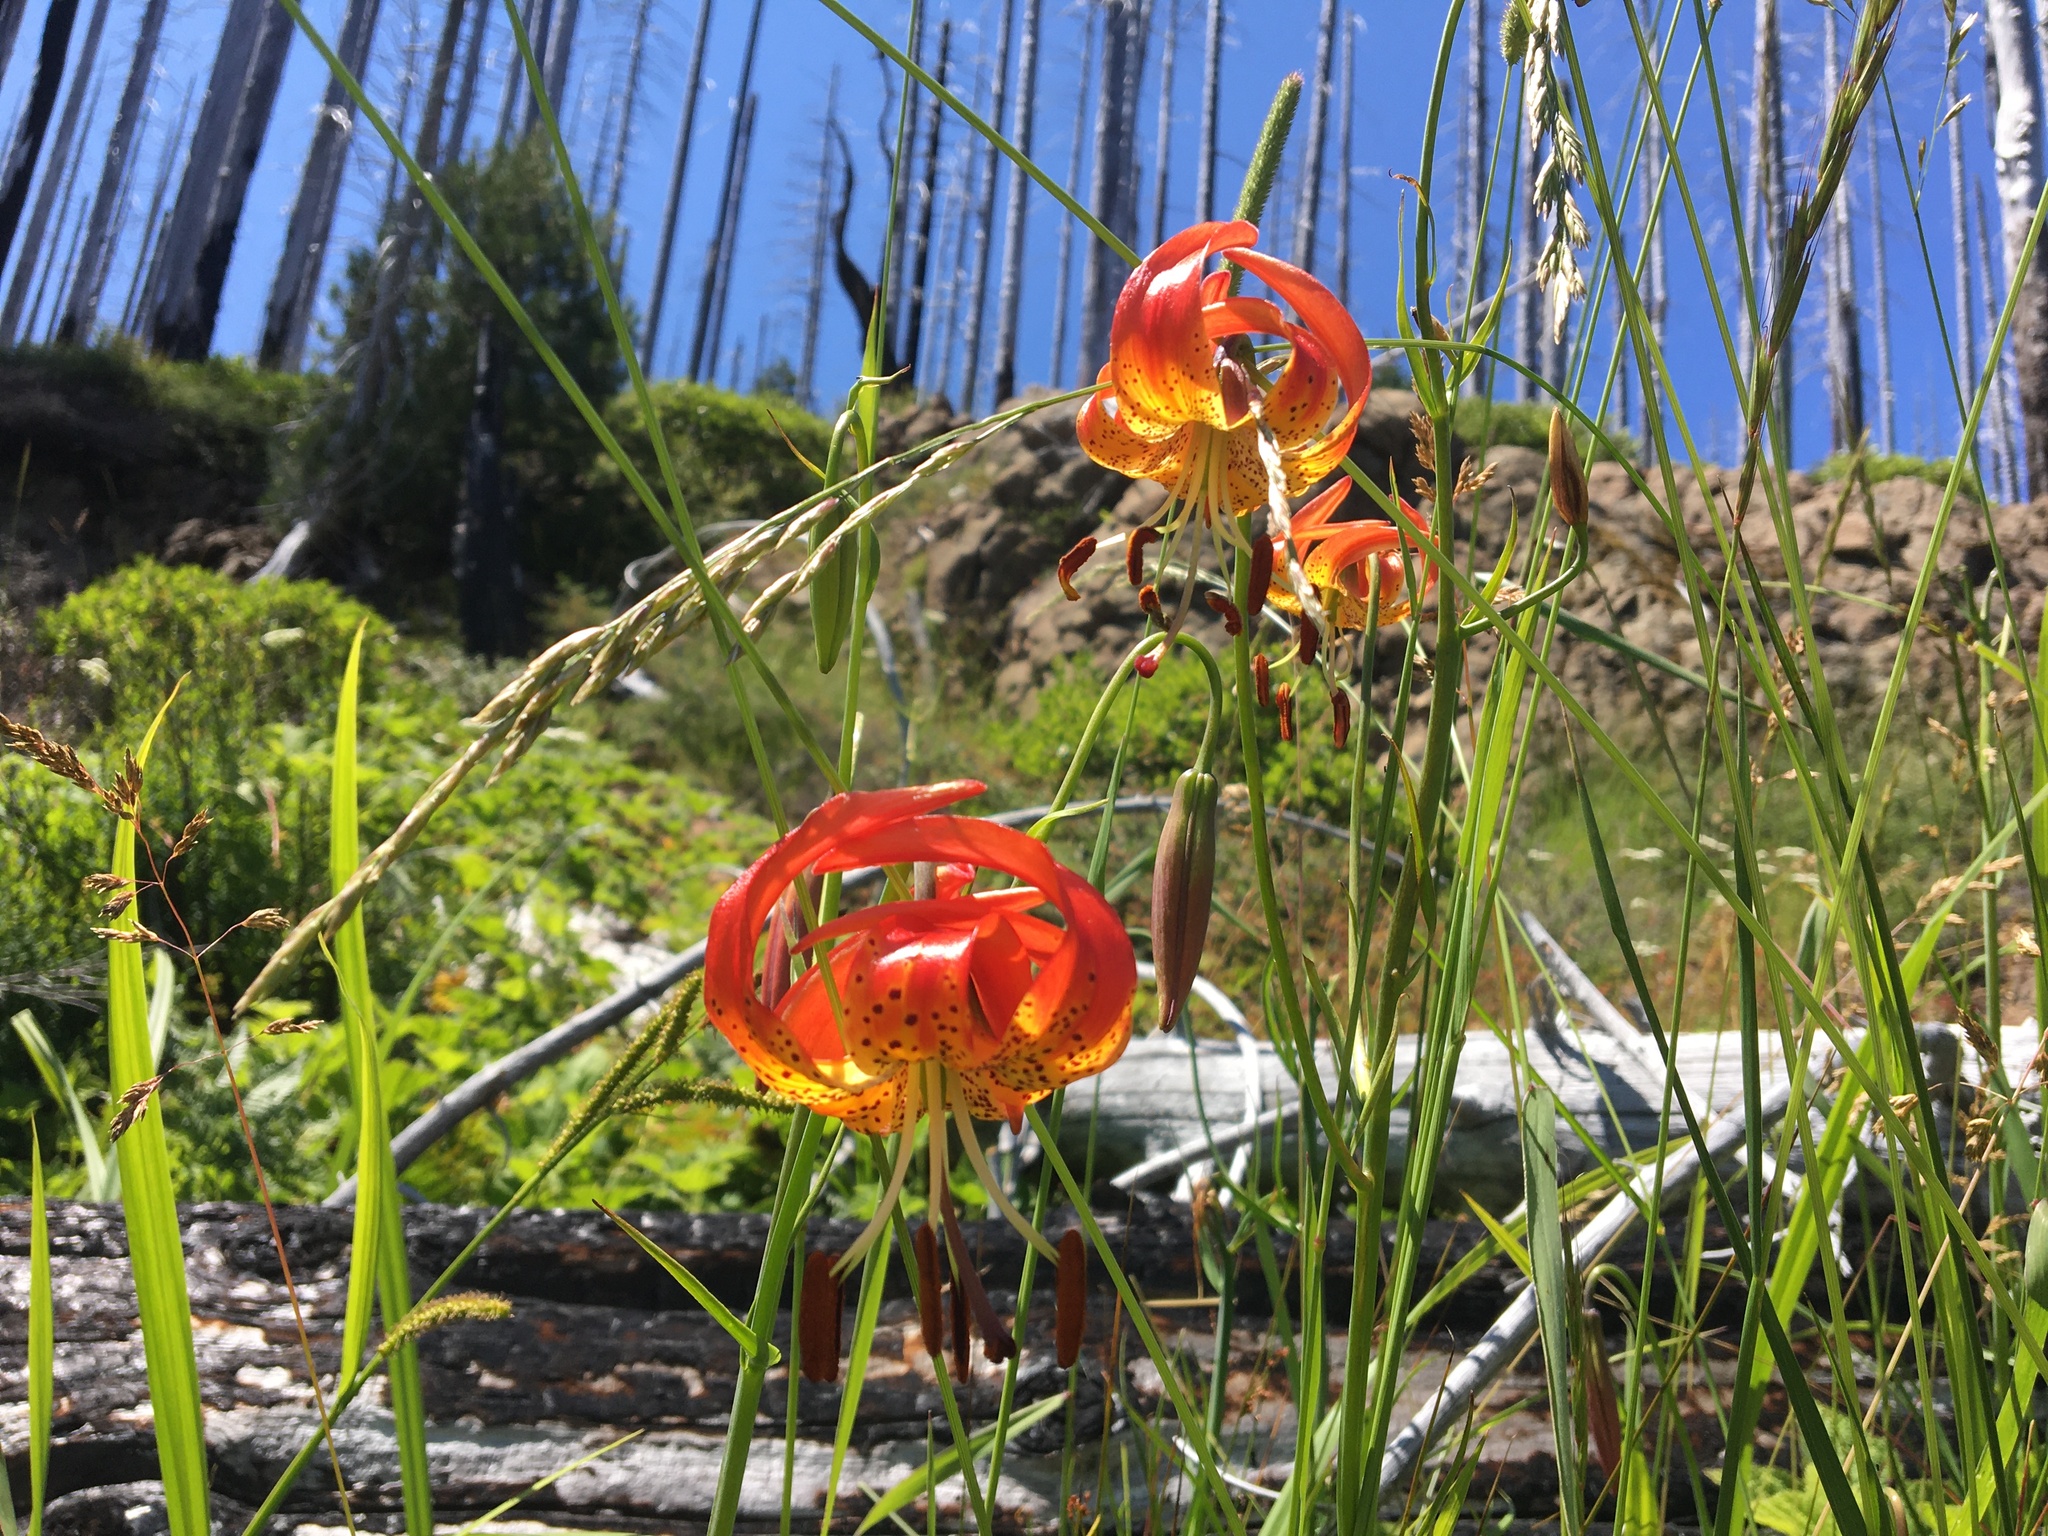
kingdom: Plantae
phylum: Tracheophyta
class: Liliopsida
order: Liliales
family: Liliaceae
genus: Lilium
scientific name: Lilium pardalinum
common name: Panther lily
